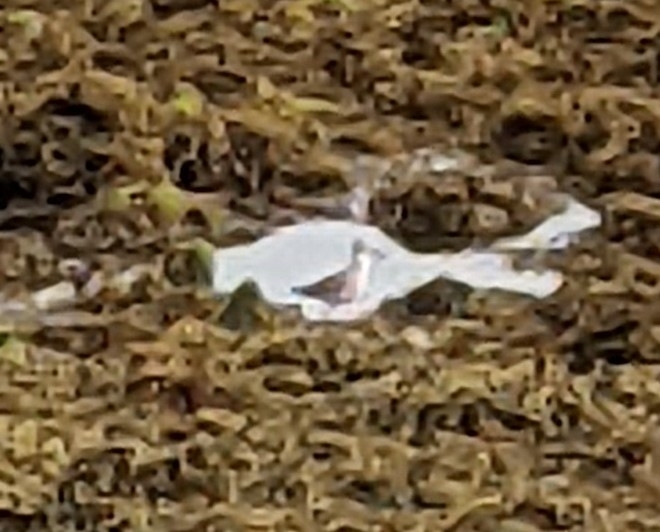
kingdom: Animalia
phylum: Chordata
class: Aves
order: Charadriiformes
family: Scolopacidae
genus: Tringa
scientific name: Tringa totanus
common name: Common redshank
